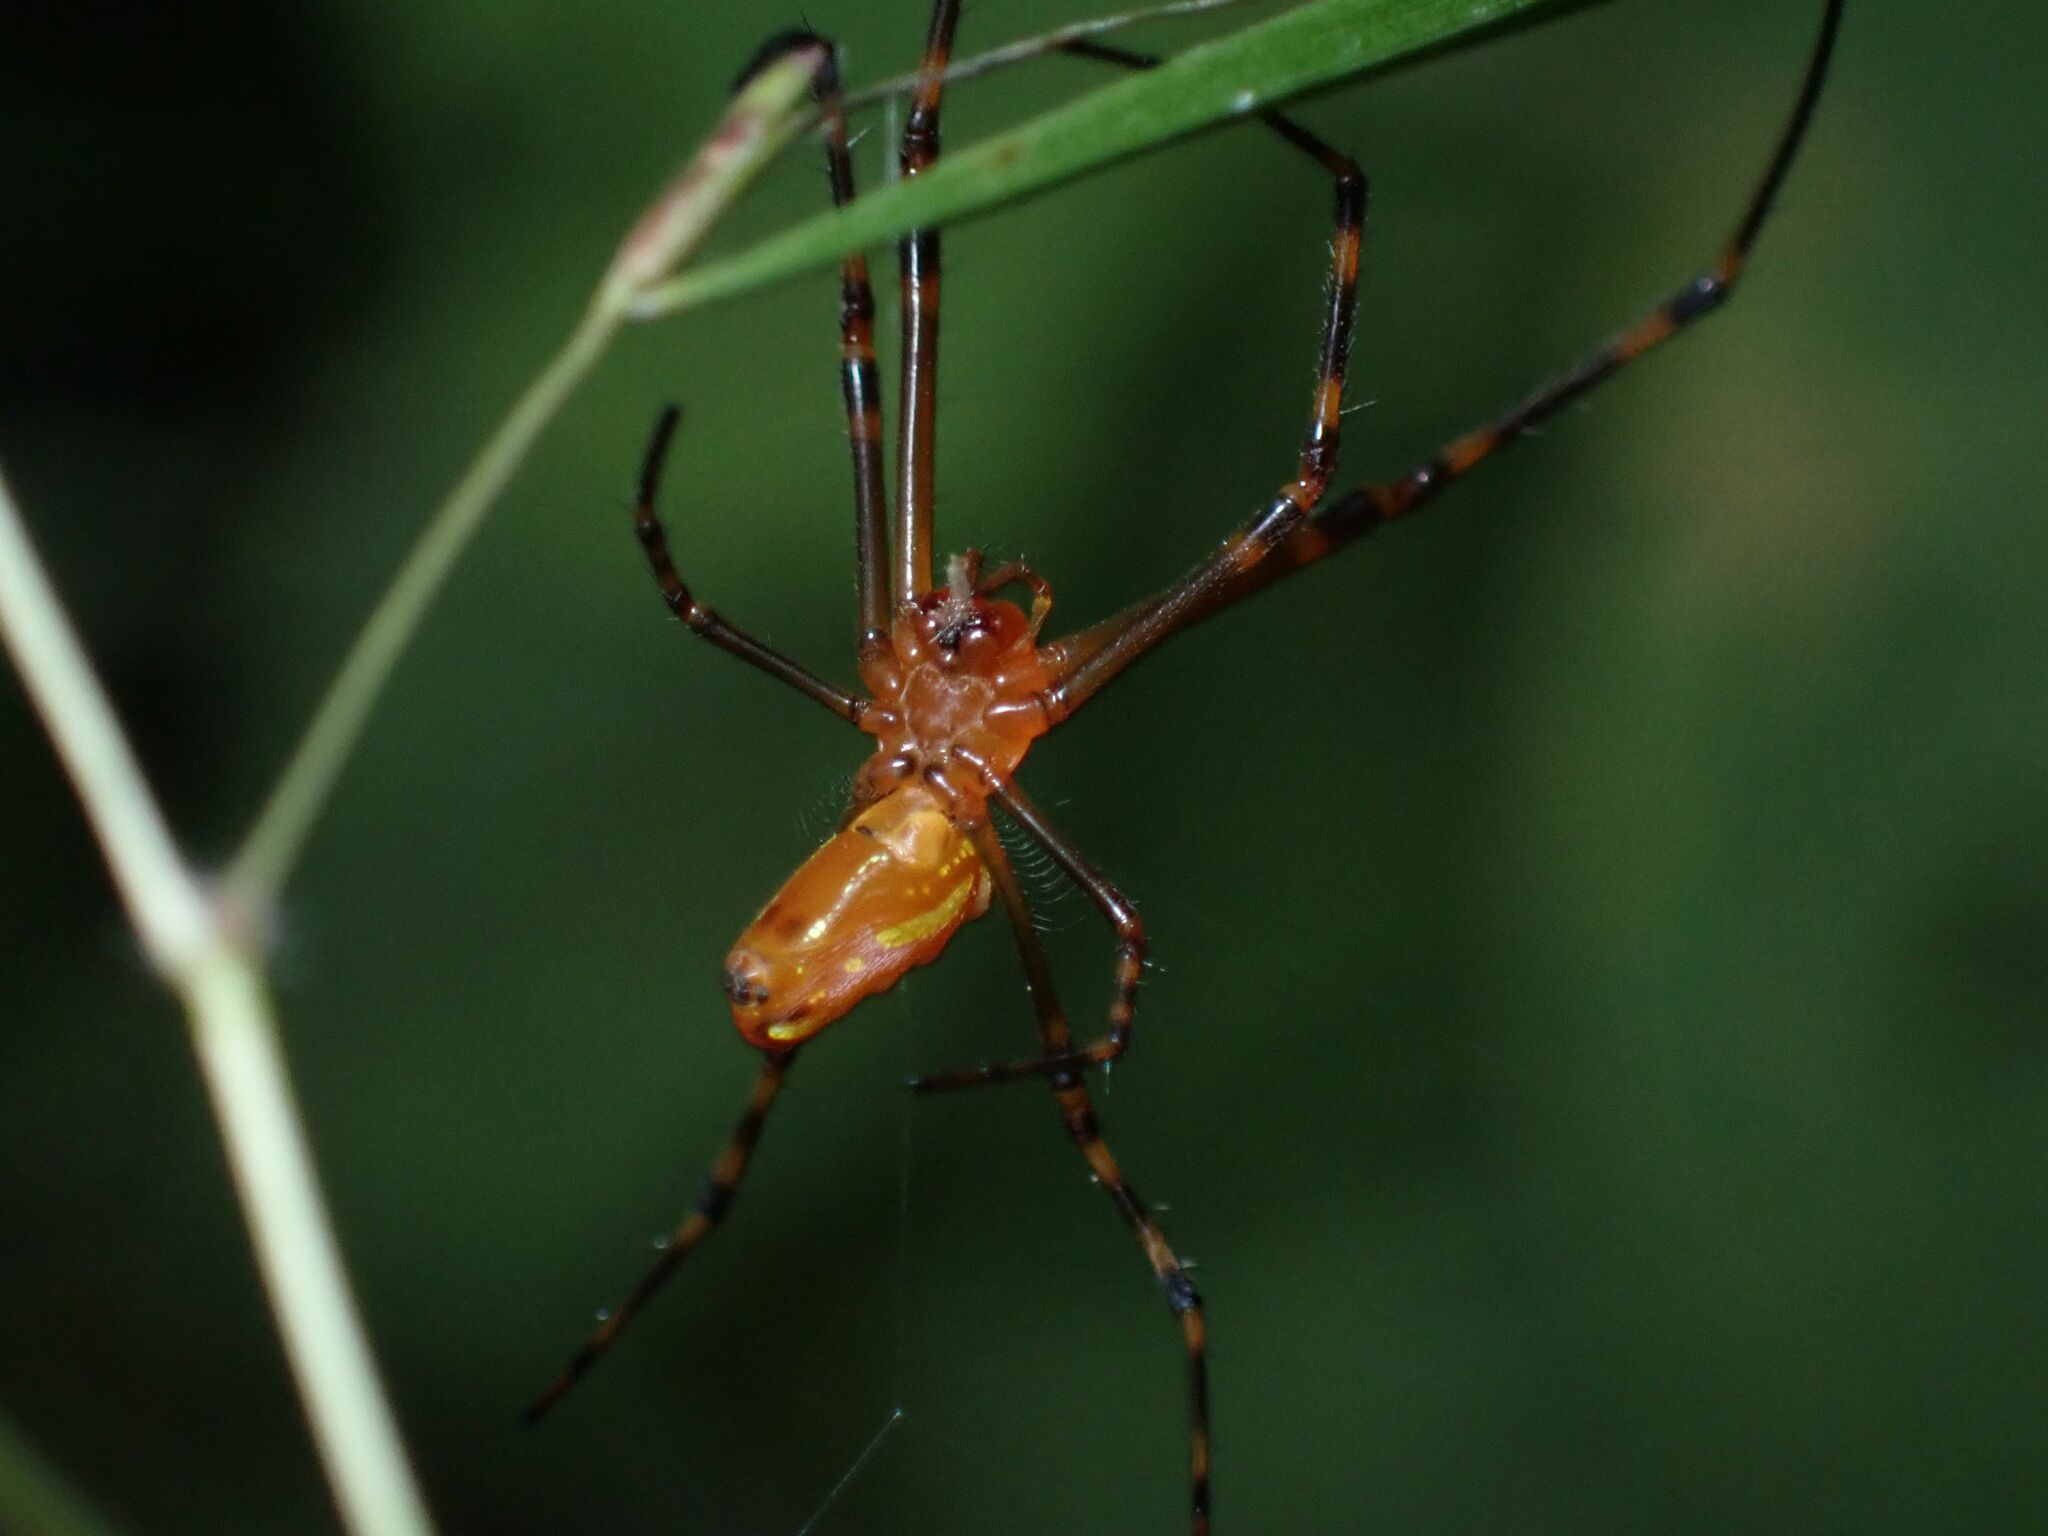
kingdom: Animalia
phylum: Arthropoda
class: Arachnida
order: Araneae
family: Tetragnathidae
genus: Leucauge
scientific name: Leucauge granulata
